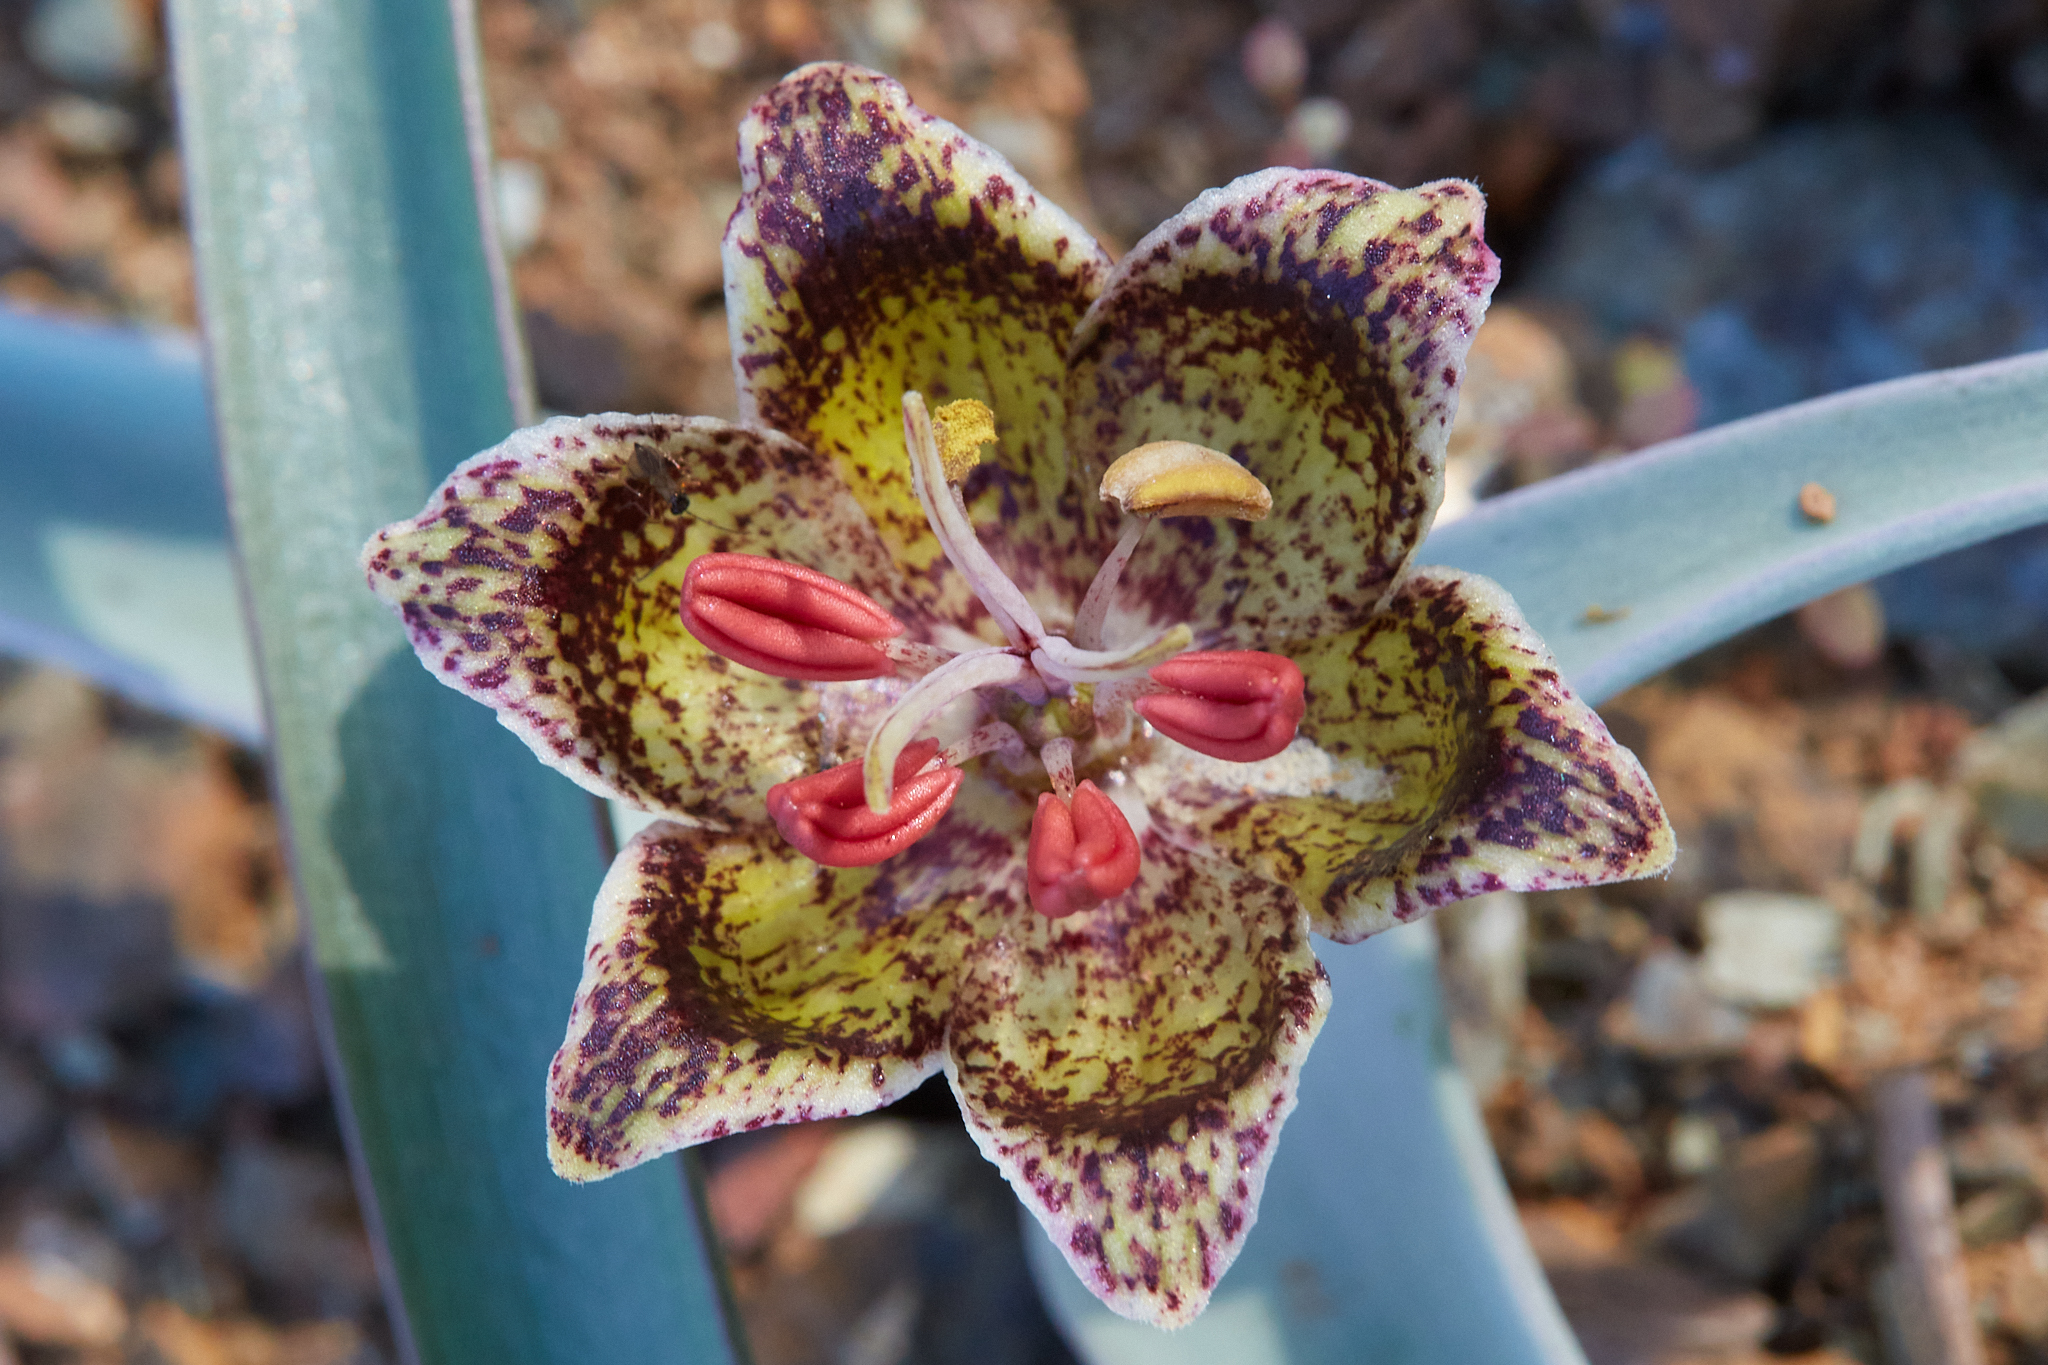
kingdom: Plantae
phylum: Tracheophyta
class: Liliopsida
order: Liliales
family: Liliaceae
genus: Fritillaria
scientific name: Fritillaria falcata
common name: Talus fritillary
